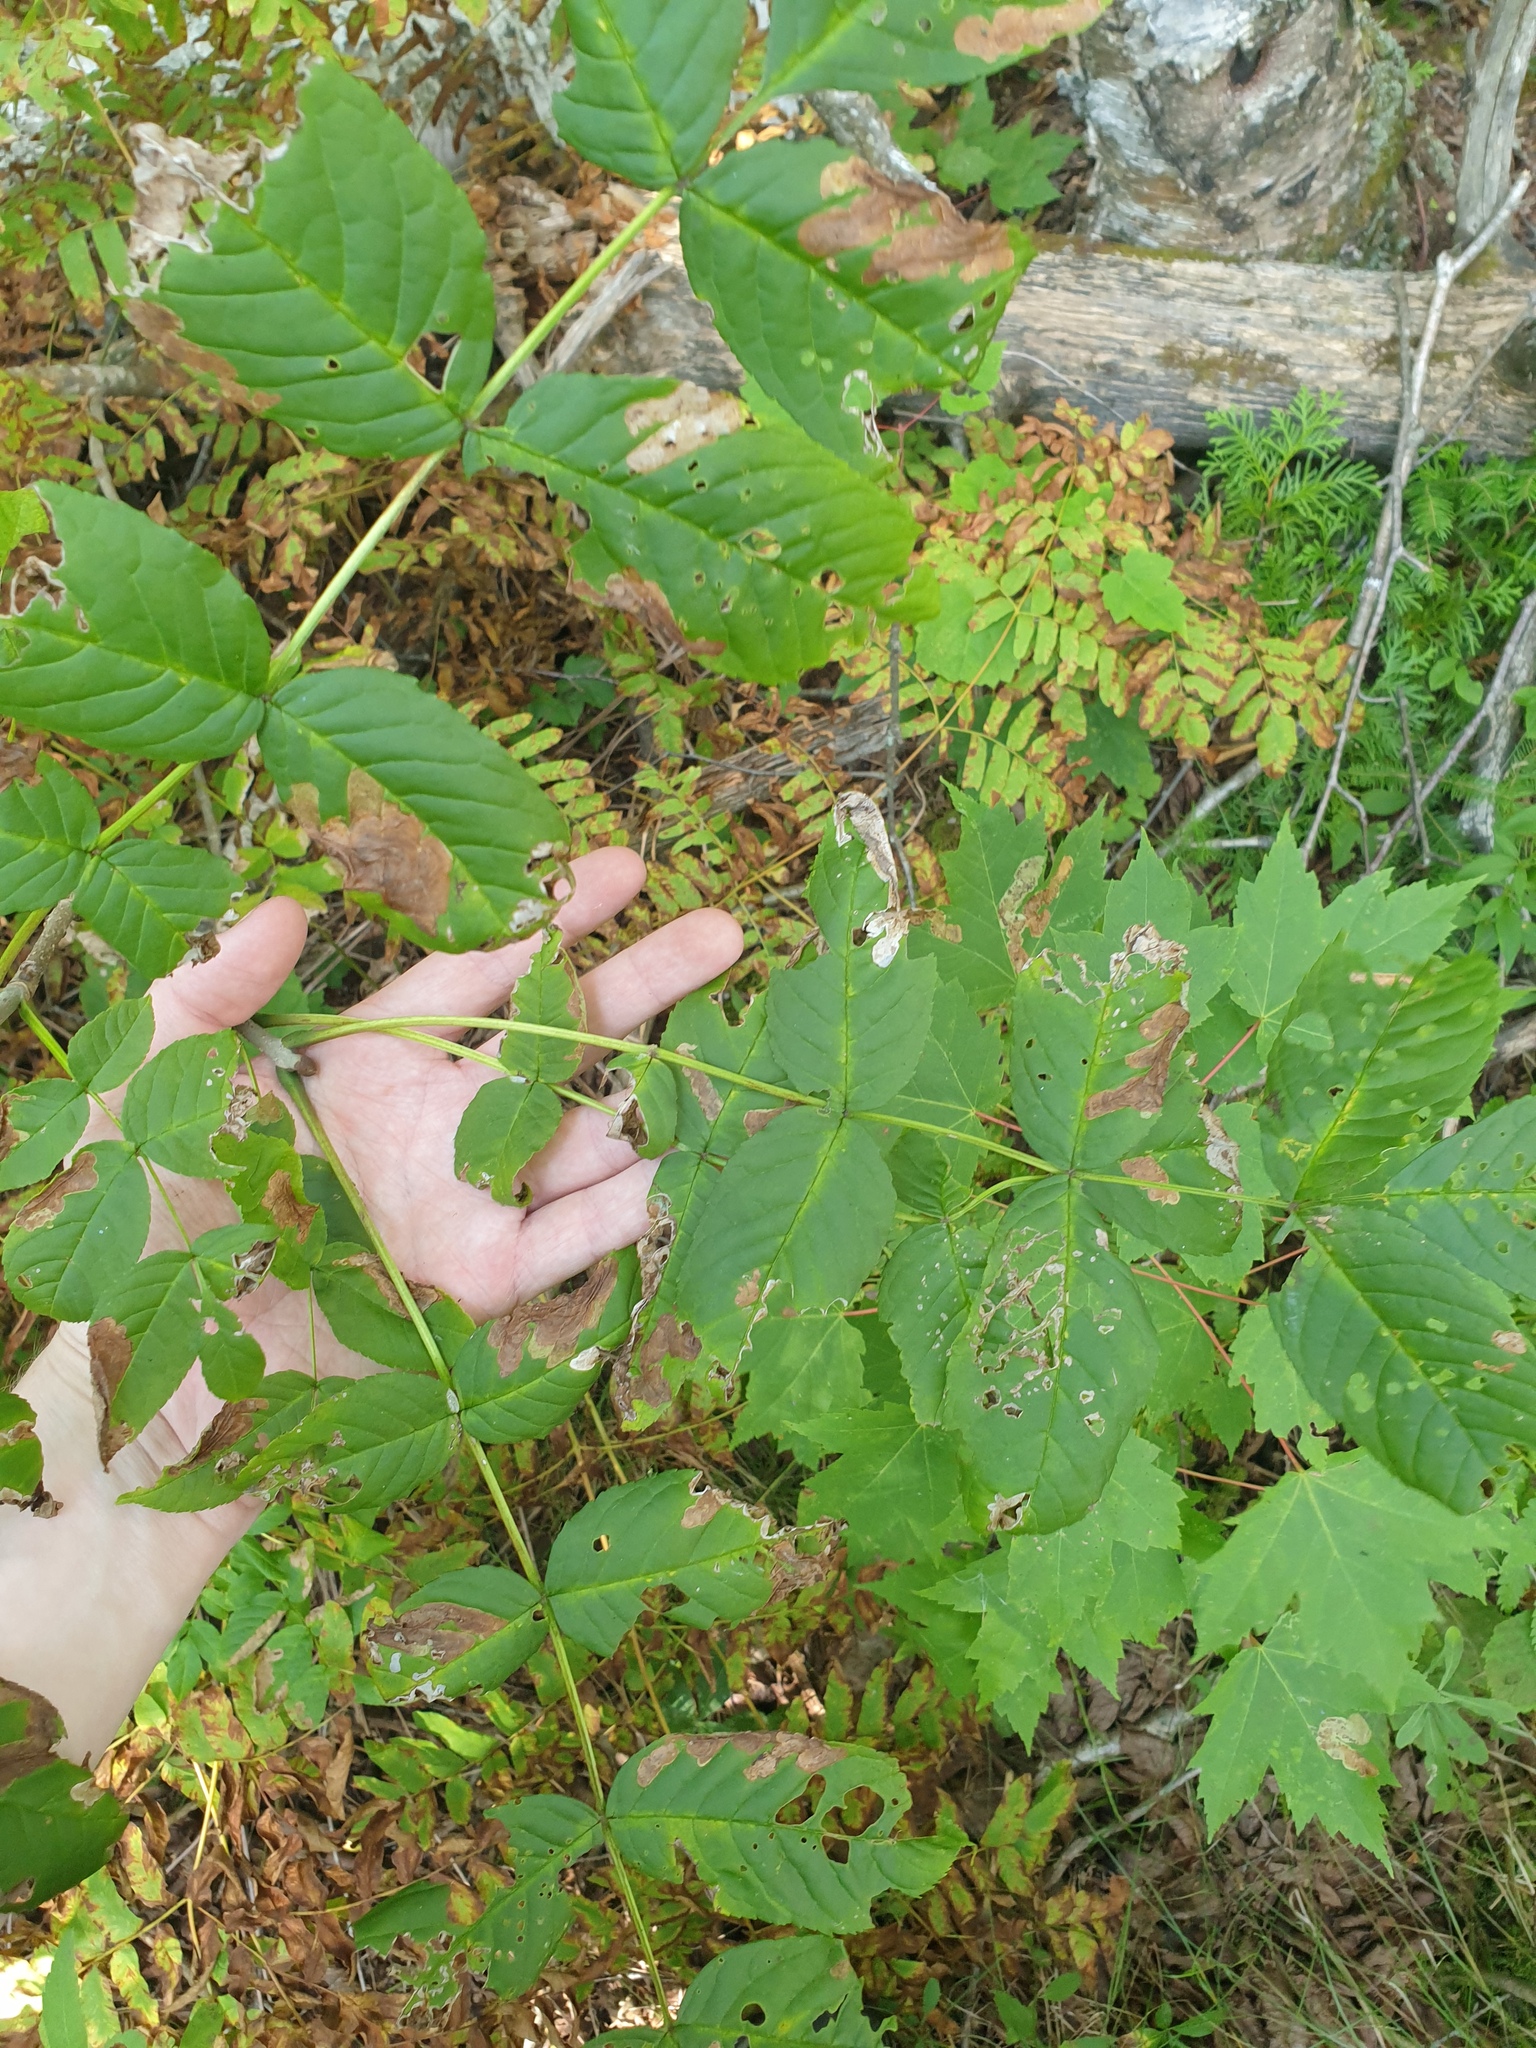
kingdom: Plantae
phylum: Tracheophyta
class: Magnoliopsida
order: Lamiales
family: Oleaceae
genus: Fraxinus
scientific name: Fraxinus nigra
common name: Black ash
